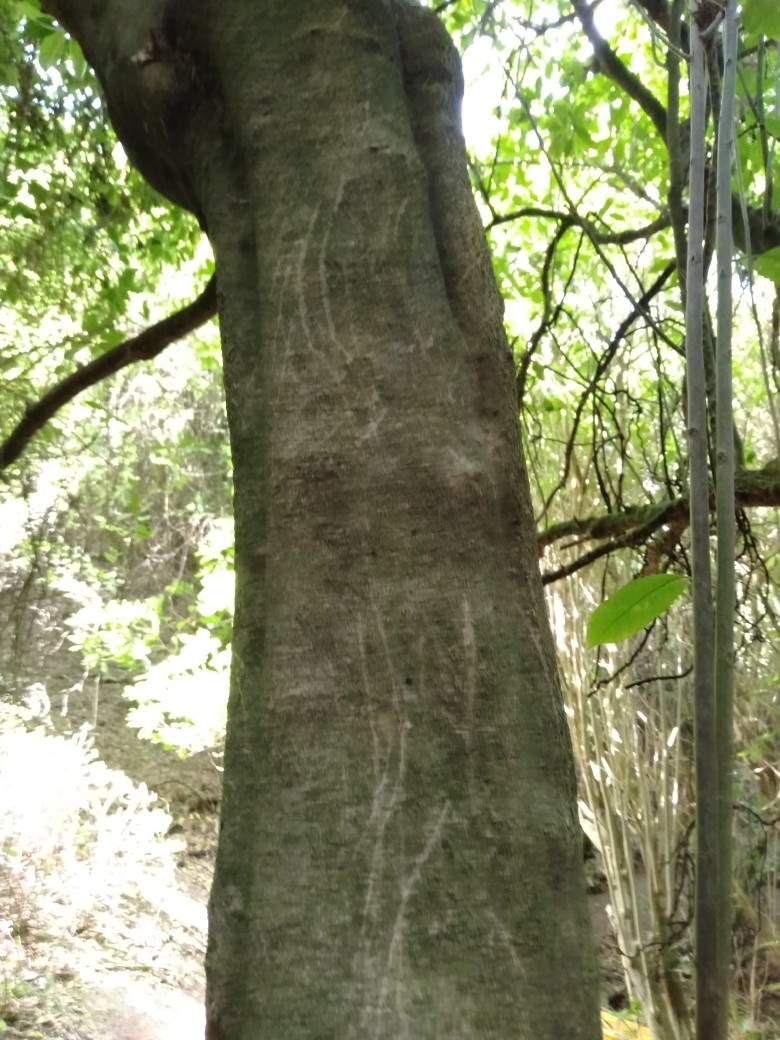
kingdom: Animalia
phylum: Chordata
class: Mammalia
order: Diprotodontia
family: Phalangeridae
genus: Trichosurus
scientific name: Trichosurus vulpecula
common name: Common brushtail
